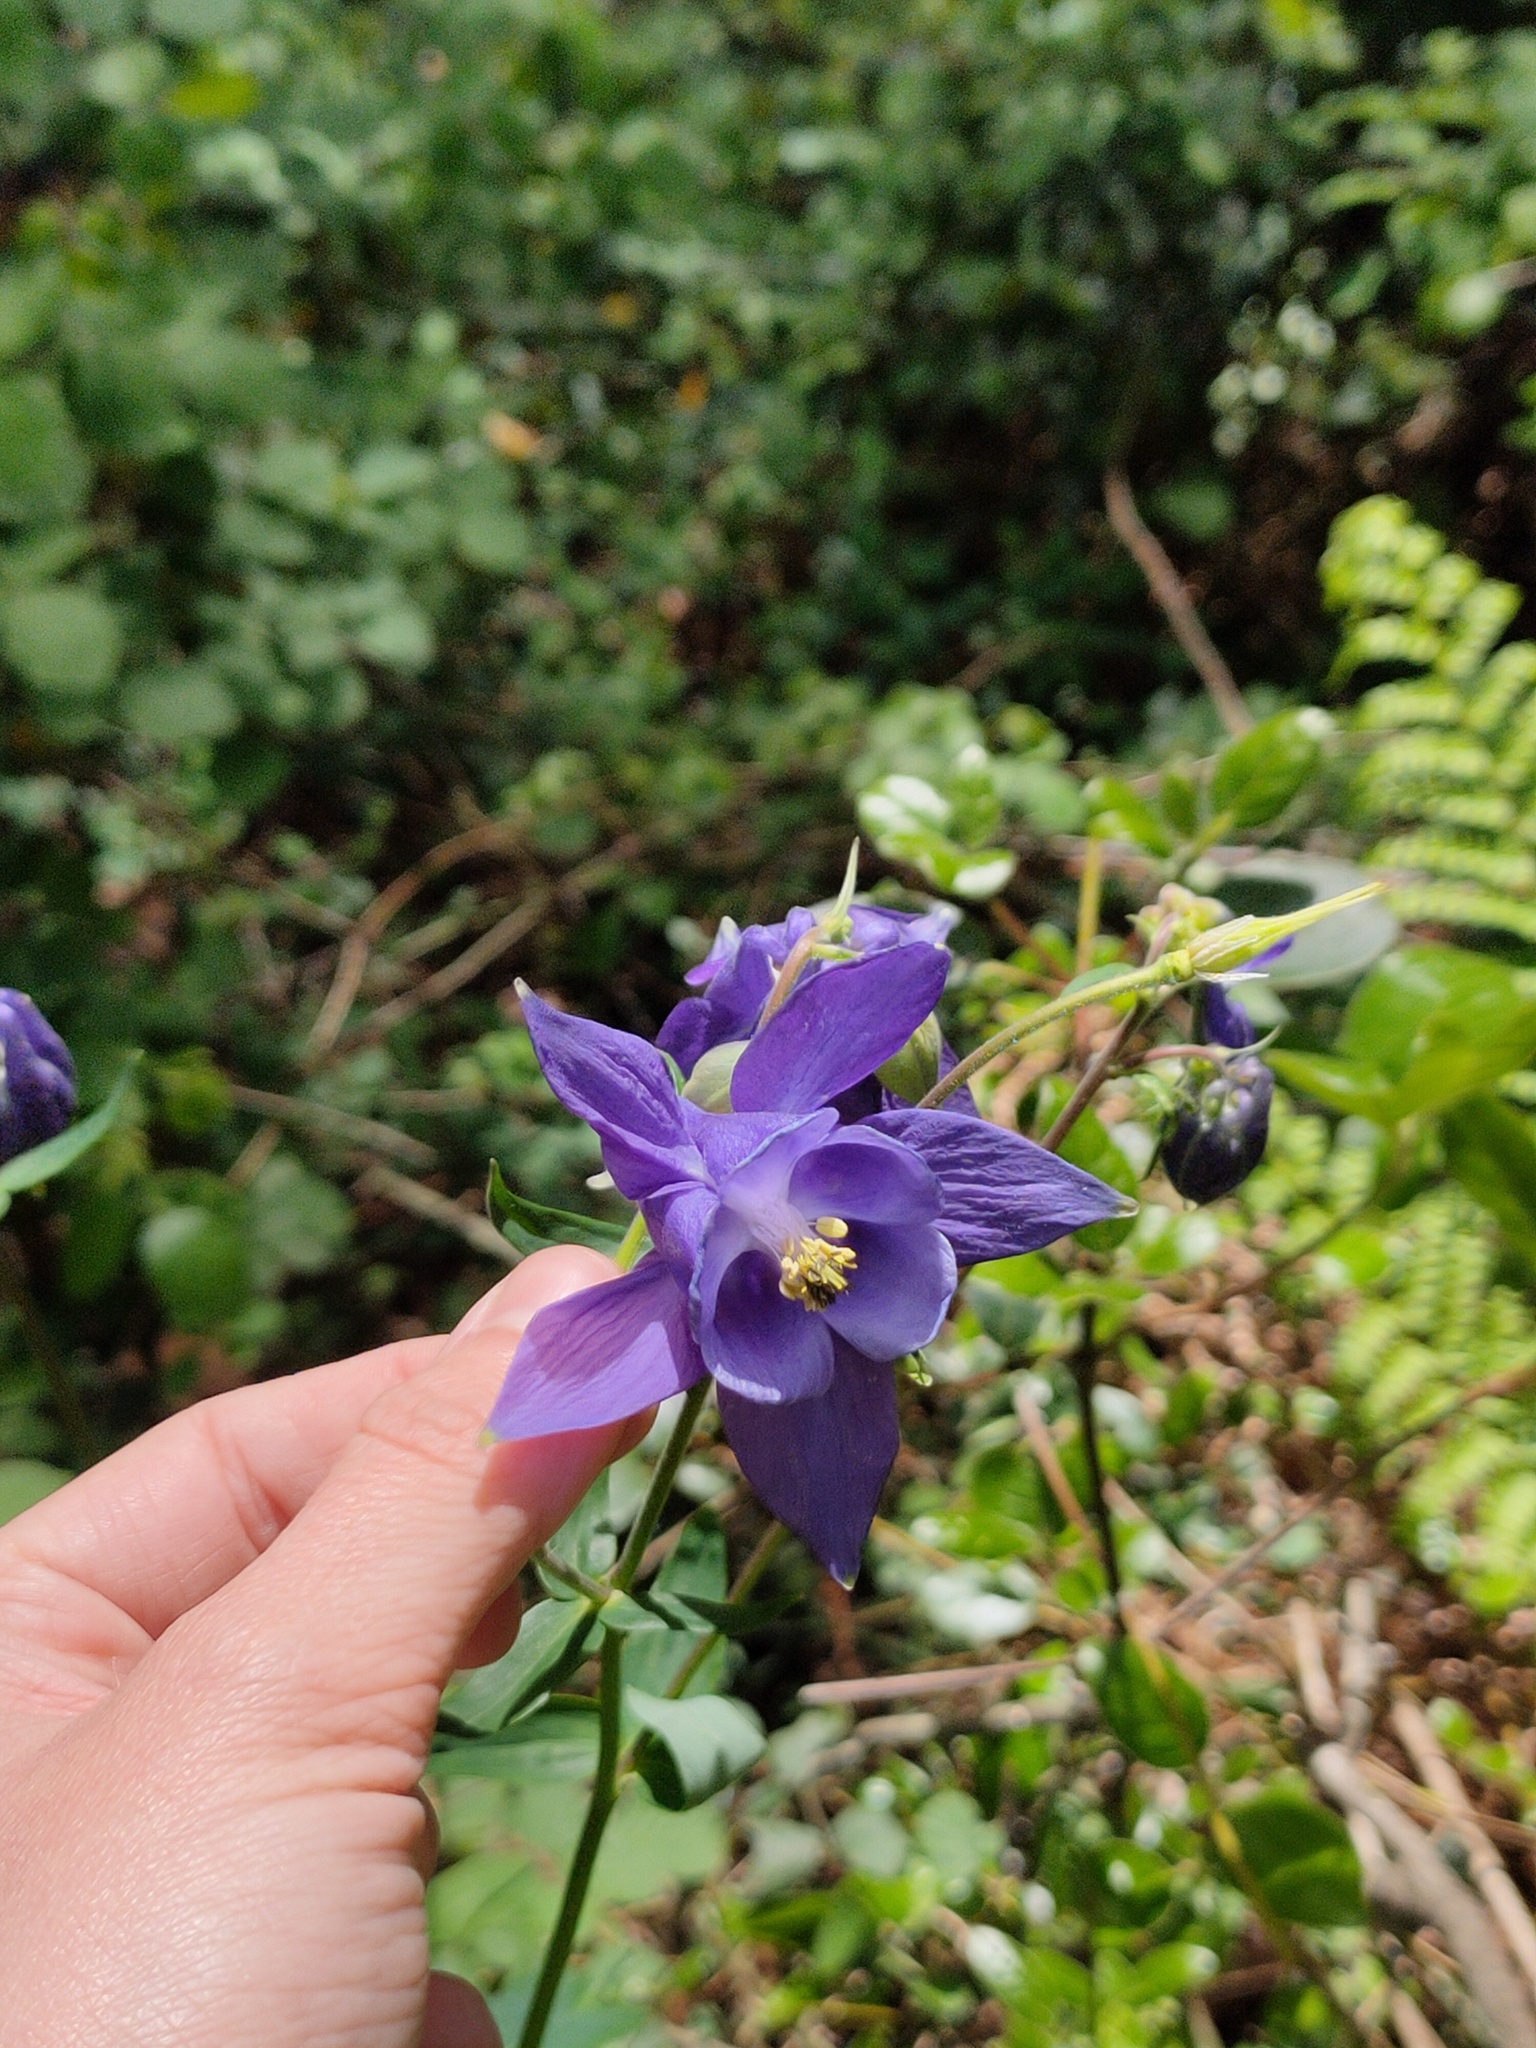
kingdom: Plantae
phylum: Tracheophyta
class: Magnoliopsida
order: Ranunculales
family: Ranunculaceae
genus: Aquilegia
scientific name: Aquilegia vulgaris
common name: Columbine
